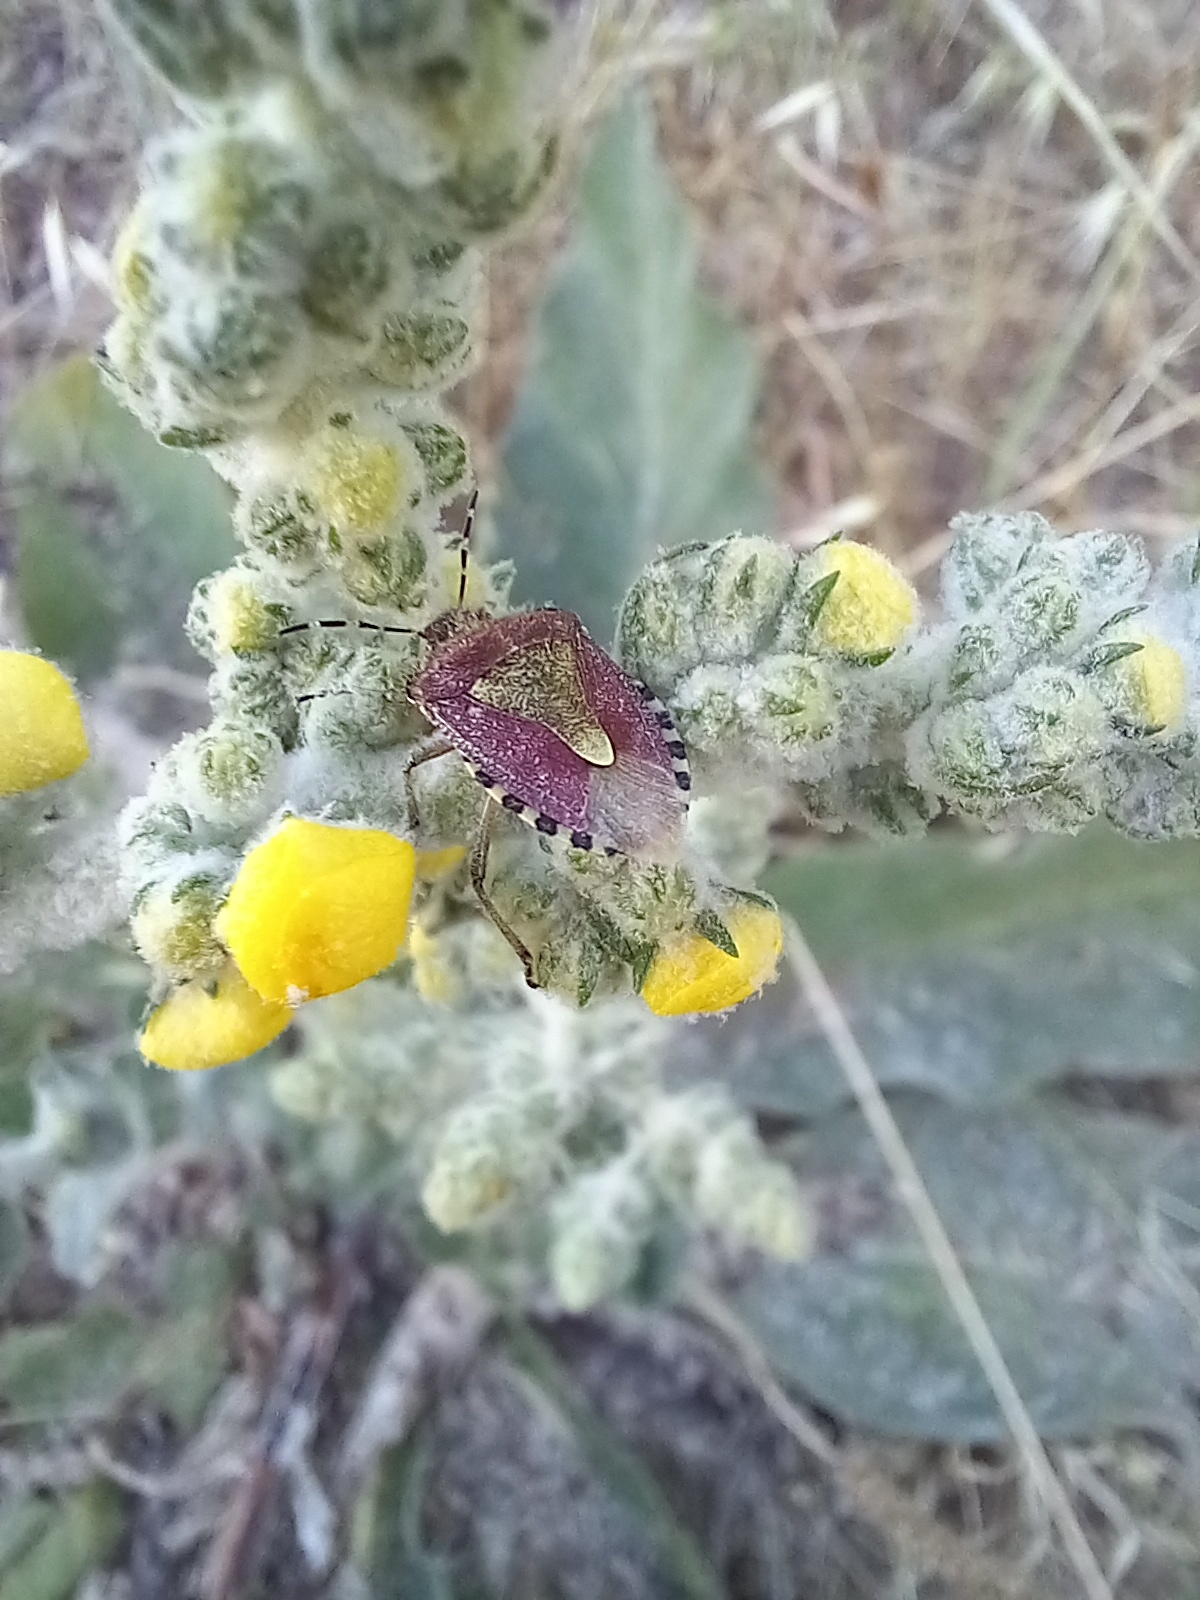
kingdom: Animalia
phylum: Arthropoda
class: Insecta
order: Hemiptera
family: Pentatomidae
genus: Dolycoris
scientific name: Dolycoris baccarum
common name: Sloe bug
